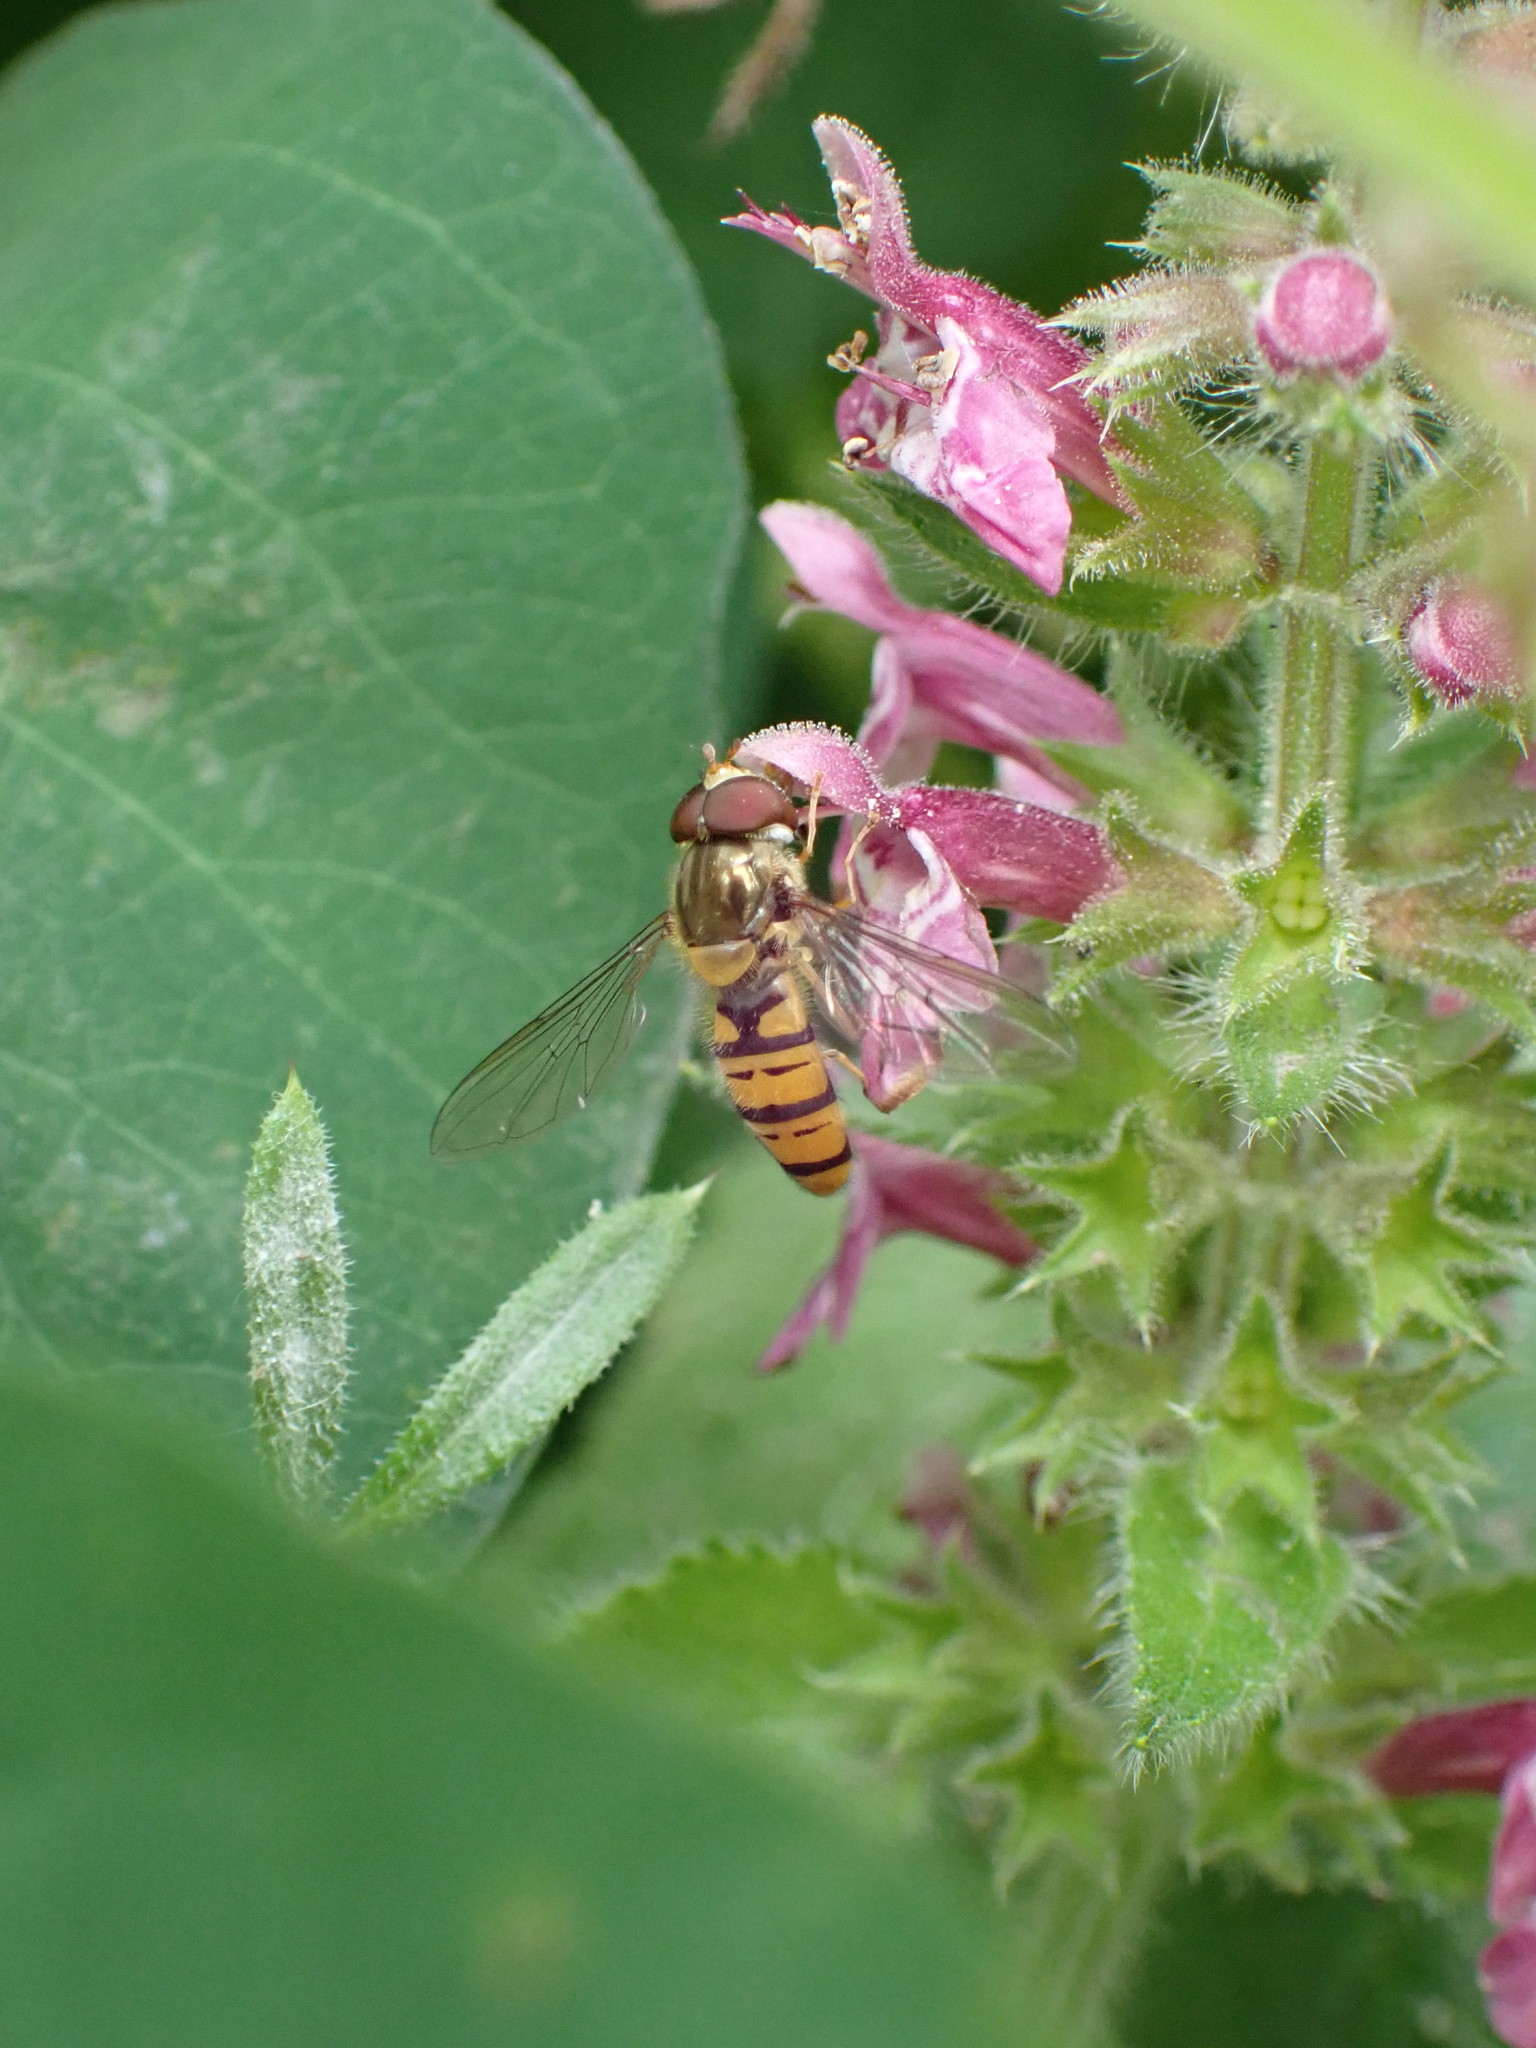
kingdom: Animalia
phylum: Arthropoda
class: Insecta
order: Diptera
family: Syrphidae
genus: Episyrphus
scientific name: Episyrphus balteatus
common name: Marmalade hoverfly
